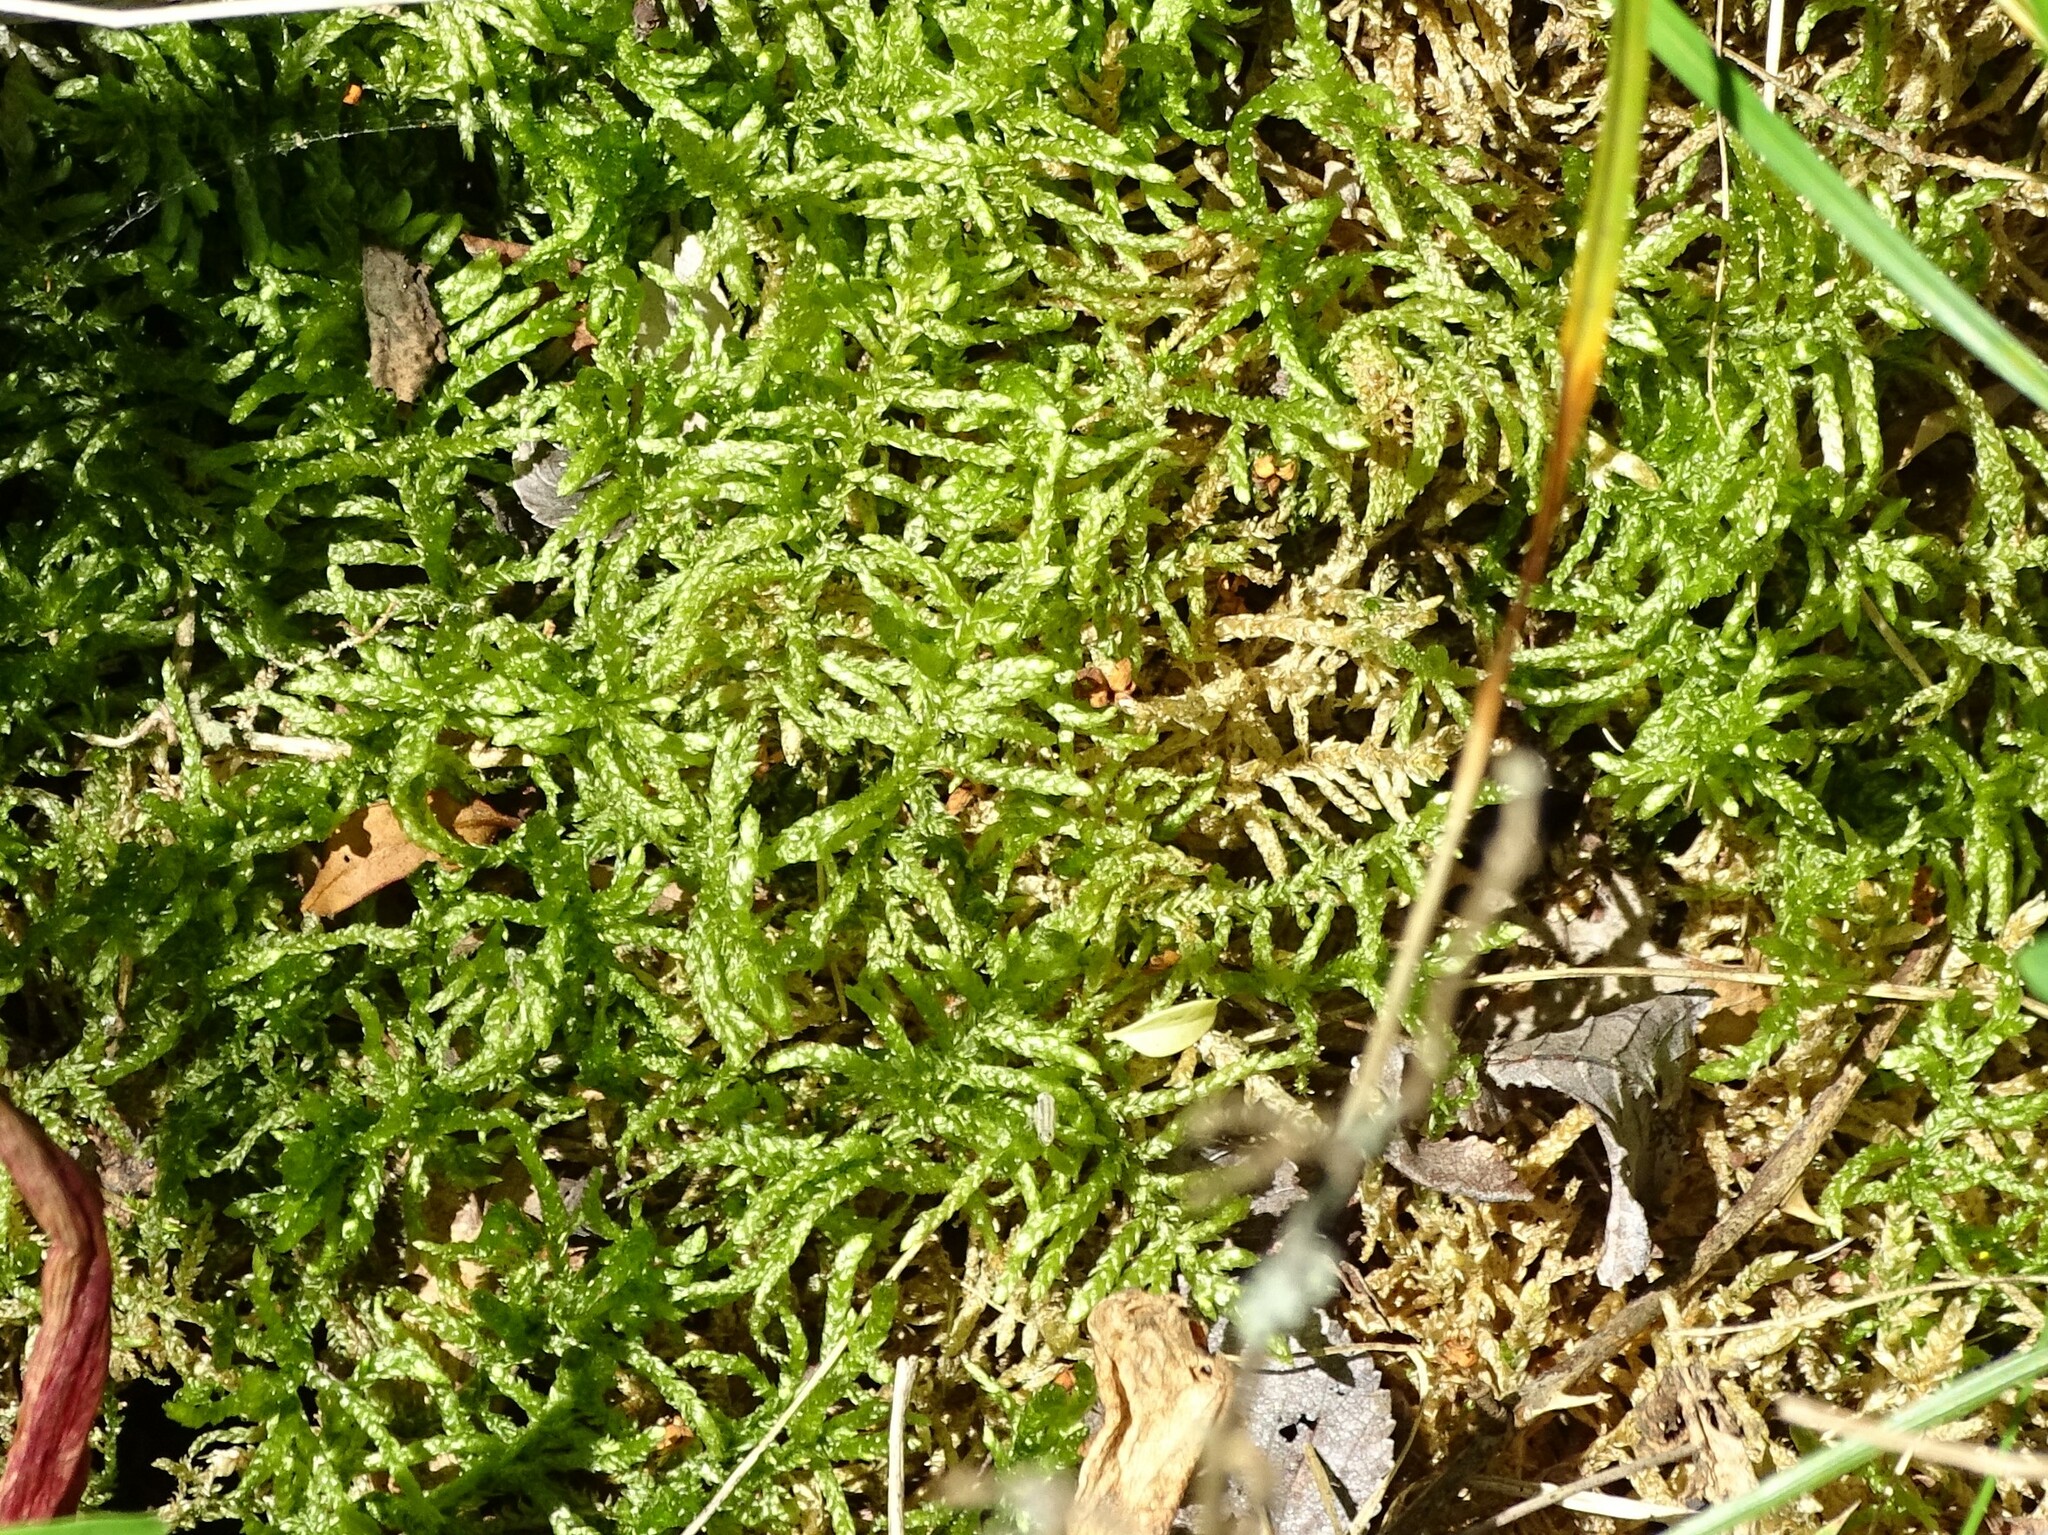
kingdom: Plantae
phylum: Bryophyta
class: Bryopsida
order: Hypnales
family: Brachytheciaceae
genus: Pseudoscleropodium
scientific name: Pseudoscleropodium purum
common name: Neat feather-moss
